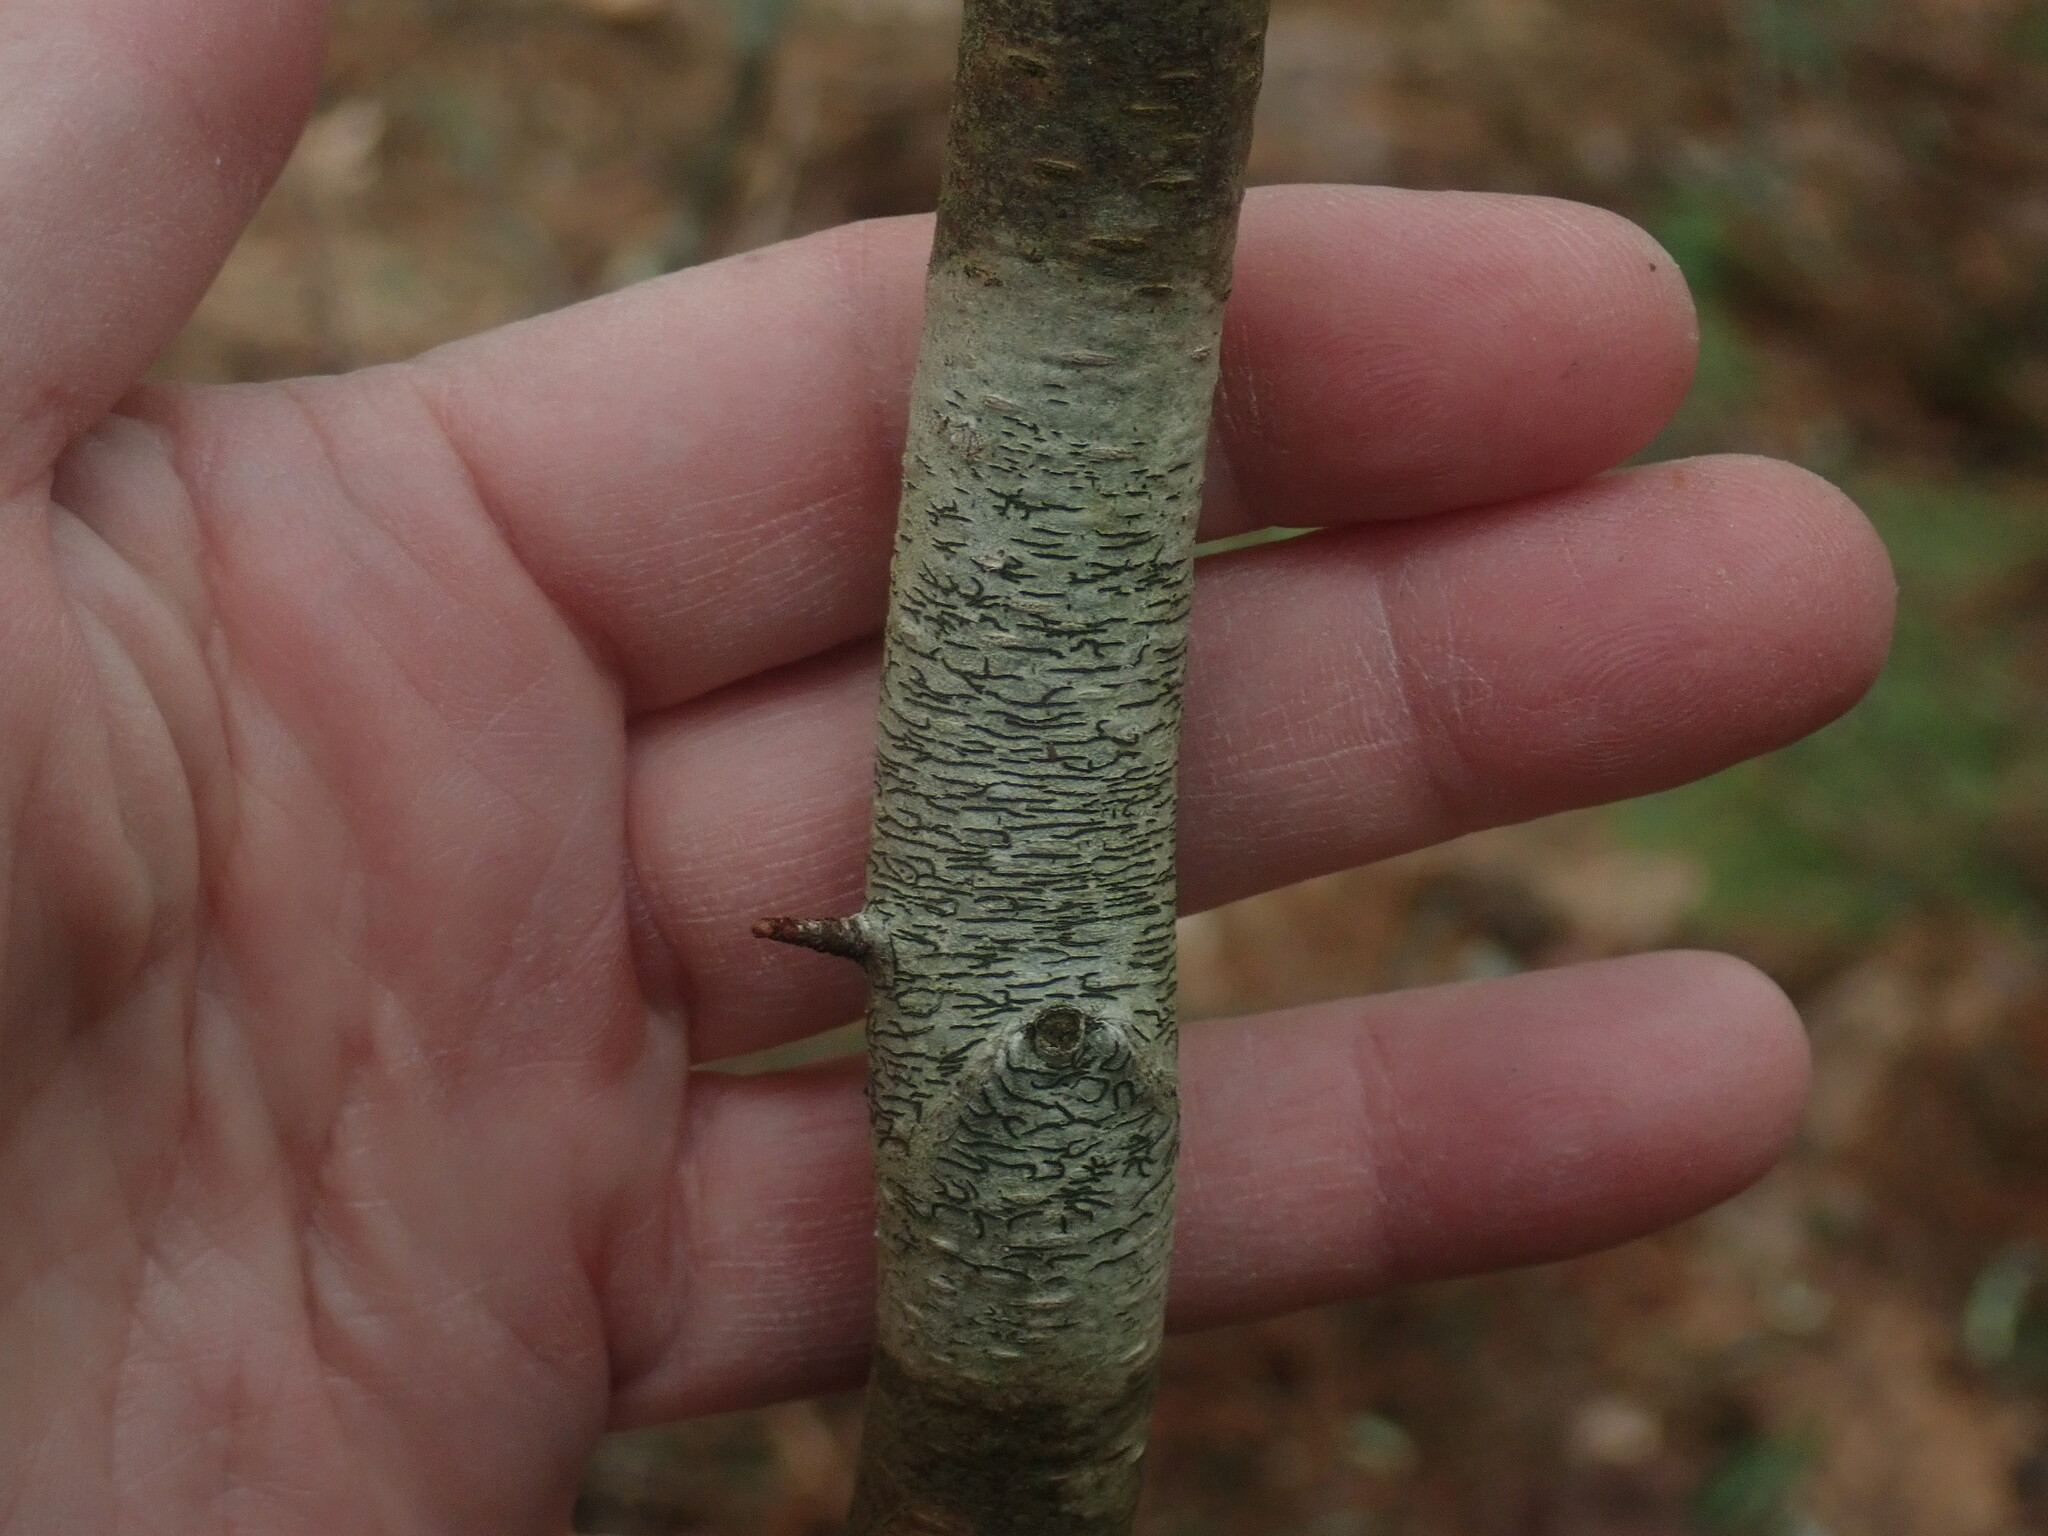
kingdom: Fungi
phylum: Ascomycota
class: Lecanoromycetes
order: Ostropales
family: Graphidaceae
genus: Graphis
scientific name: Graphis scripta
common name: Script lichen
